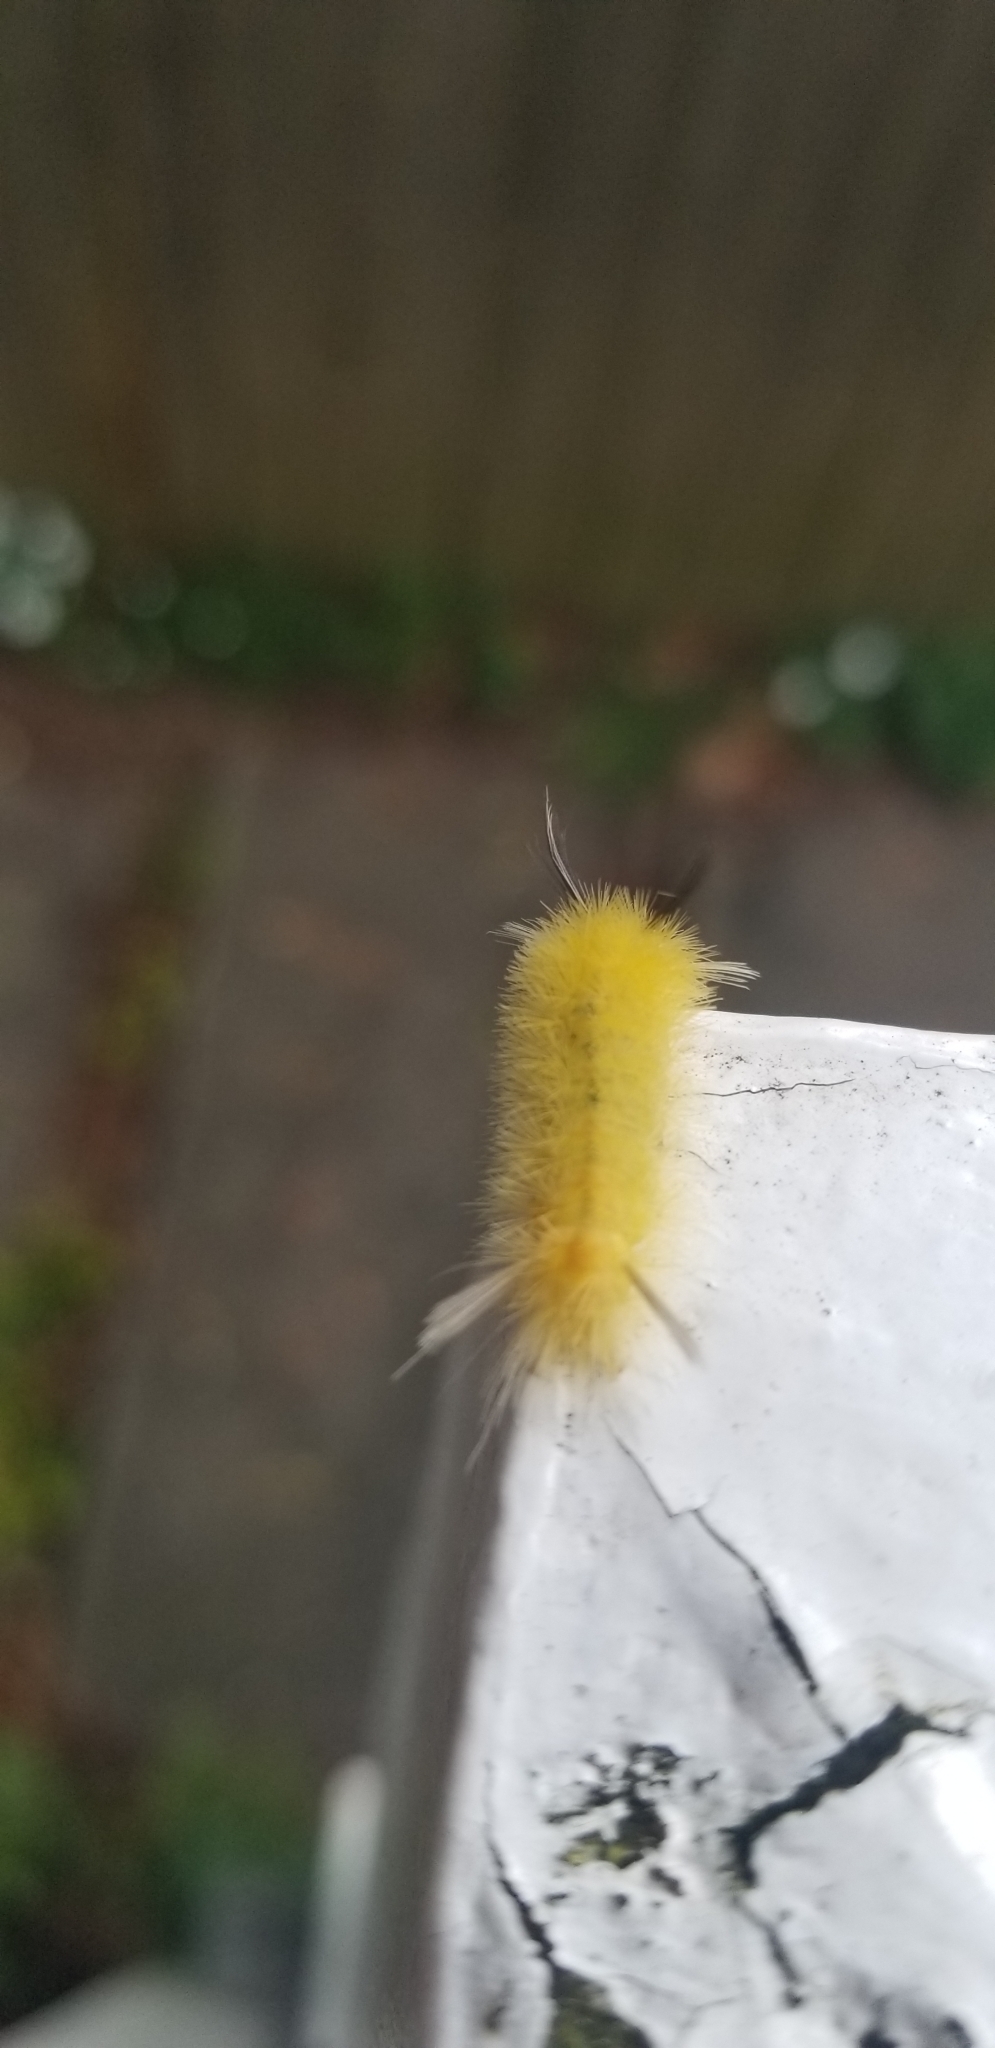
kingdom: Animalia
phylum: Arthropoda
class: Insecta
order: Lepidoptera
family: Erebidae
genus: Halysidota
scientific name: Halysidota tessellaris
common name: Banded tussock moth
